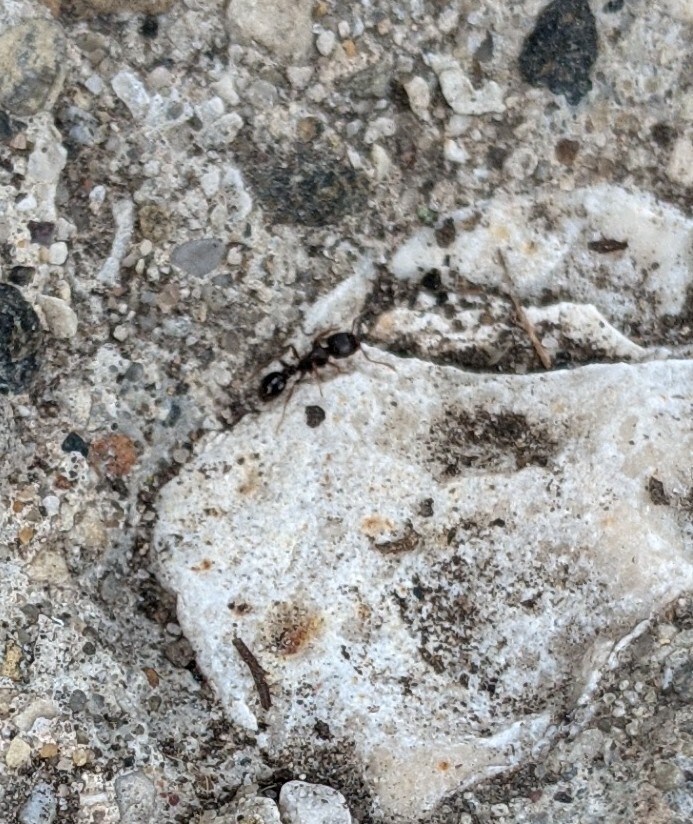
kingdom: Animalia
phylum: Arthropoda
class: Insecta
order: Hymenoptera
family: Formicidae
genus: Tetramorium
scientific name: Tetramorium immigrans
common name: Pavement ant
